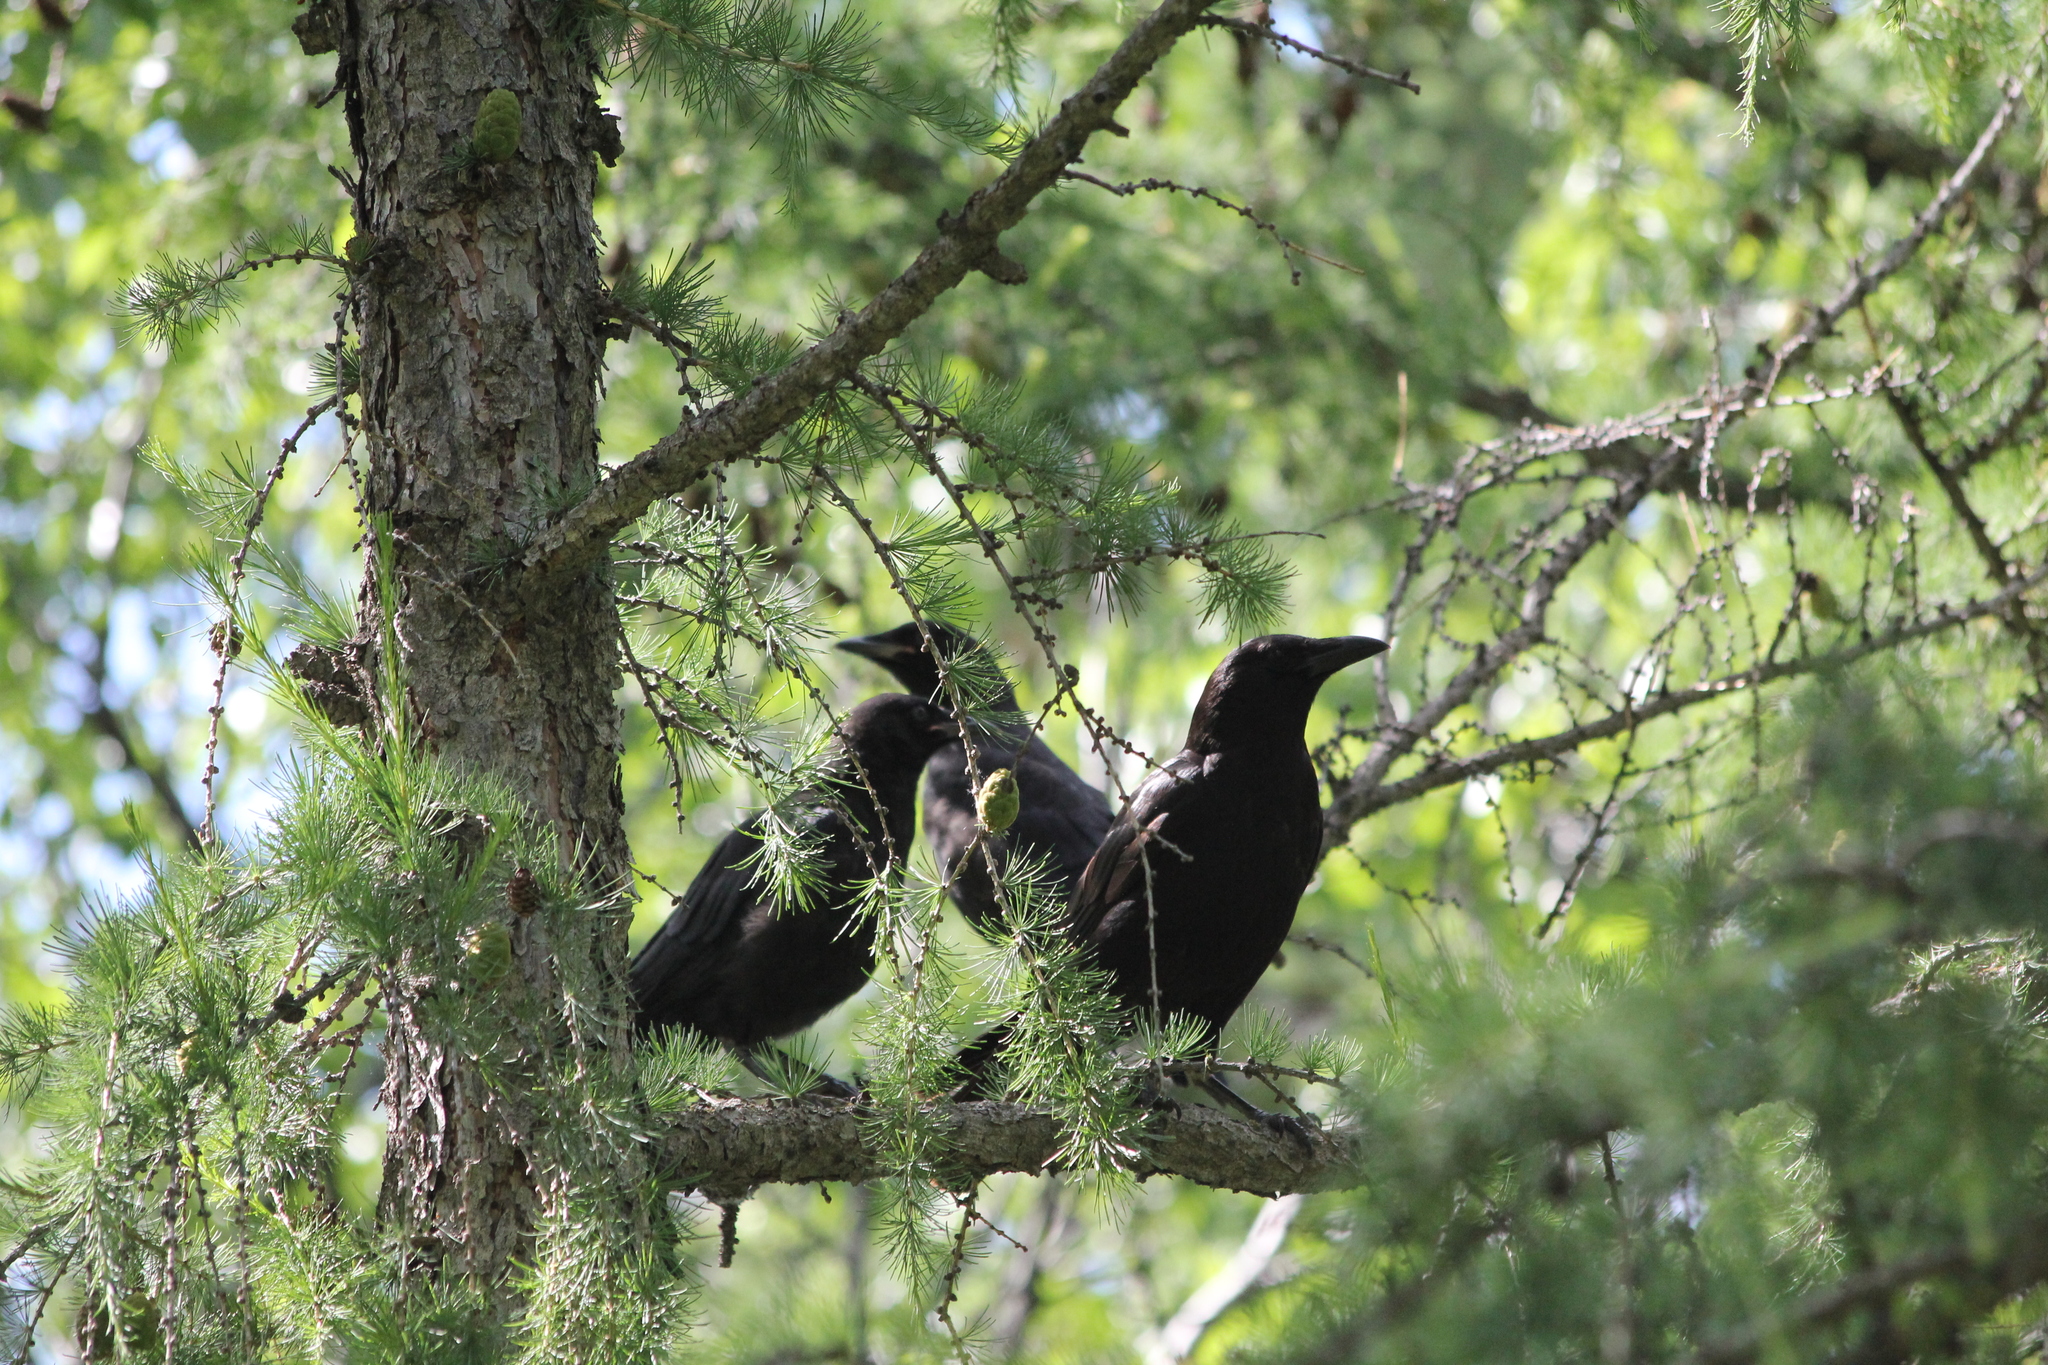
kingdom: Animalia
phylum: Chordata
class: Aves
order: Passeriformes
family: Corvidae
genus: Corvus
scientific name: Corvus brachyrhynchos
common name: American crow
